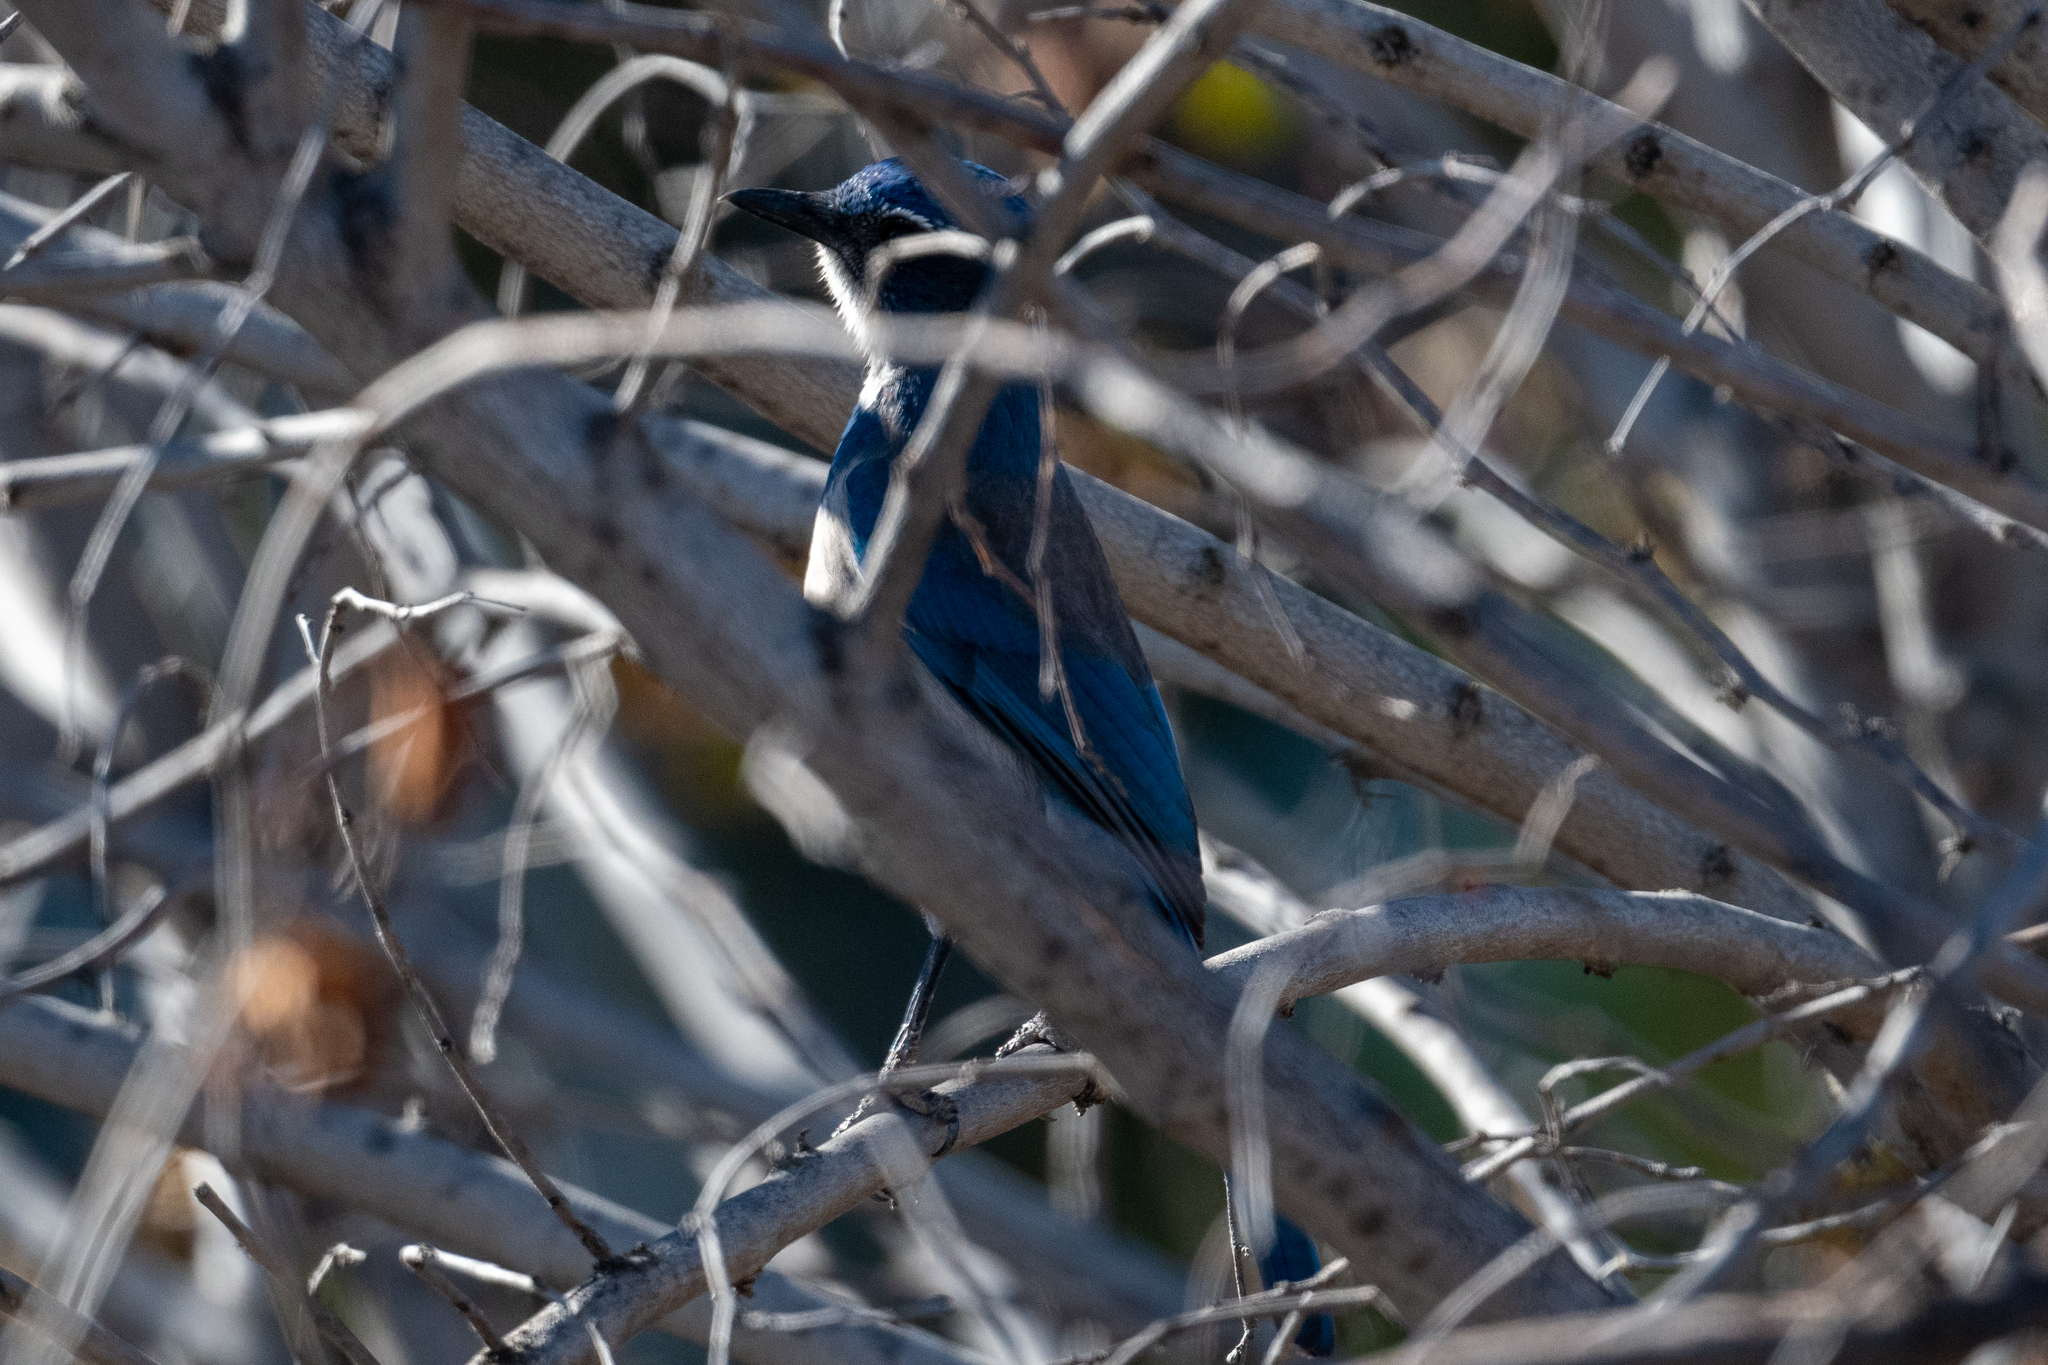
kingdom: Animalia
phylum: Chordata
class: Aves
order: Passeriformes
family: Corvidae
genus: Aphelocoma
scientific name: Aphelocoma californica
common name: California scrub-jay
